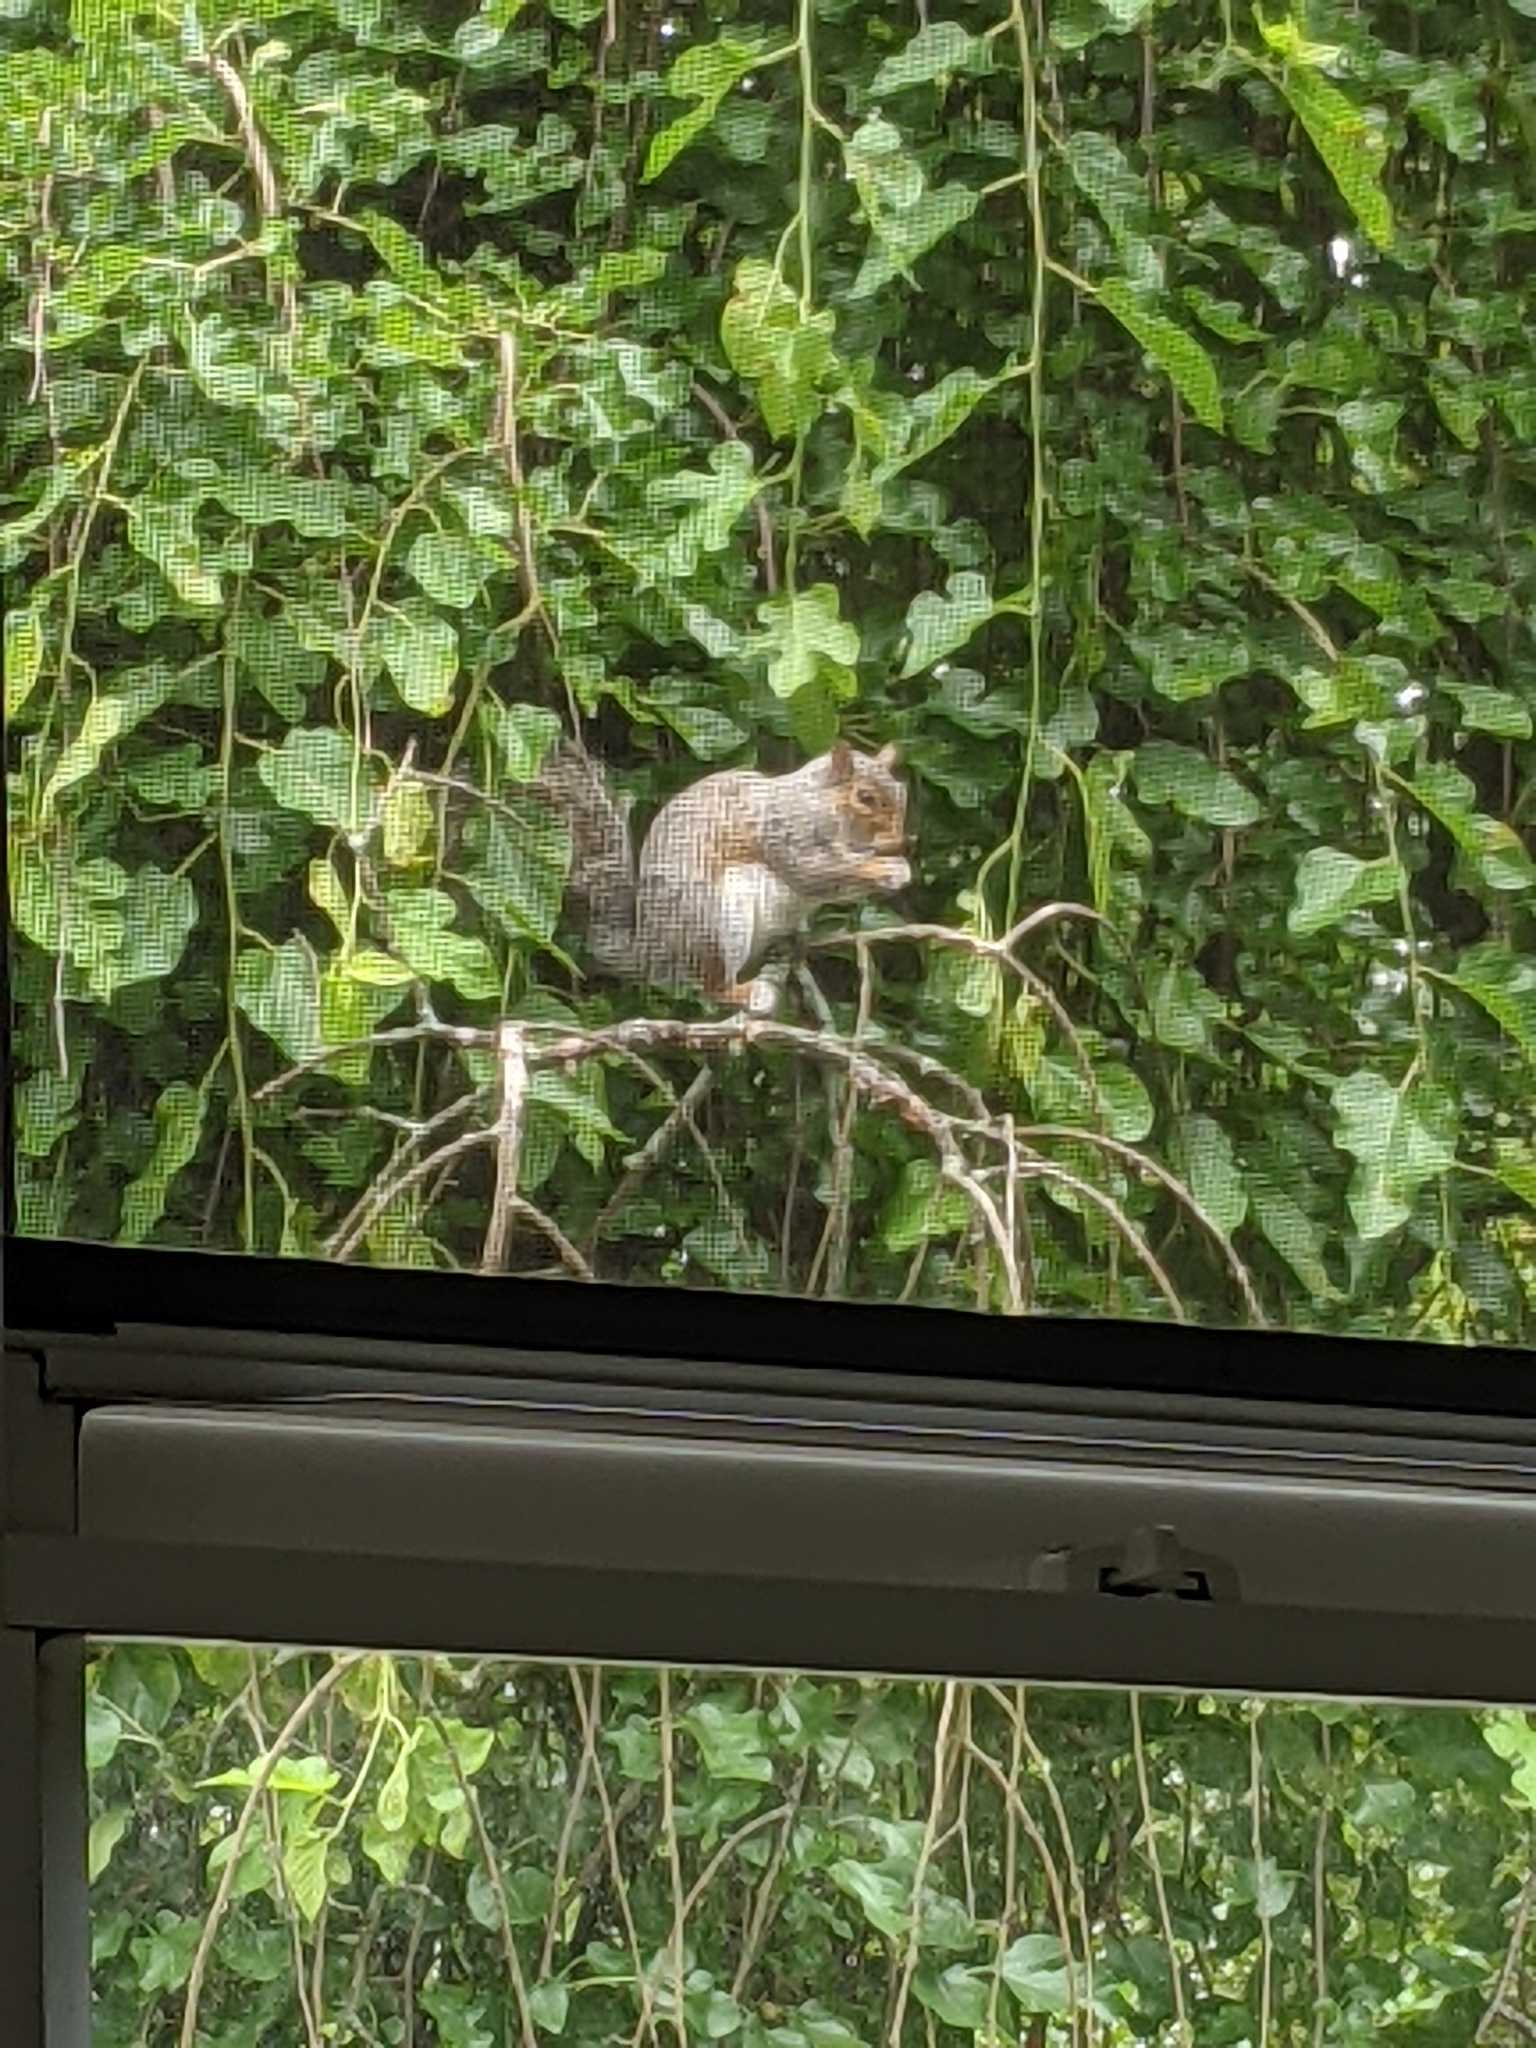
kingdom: Animalia
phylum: Chordata
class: Mammalia
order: Rodentia
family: Sciuridae
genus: Sciurus
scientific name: Sciurus carolinensis
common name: Eastern gray squirrel
